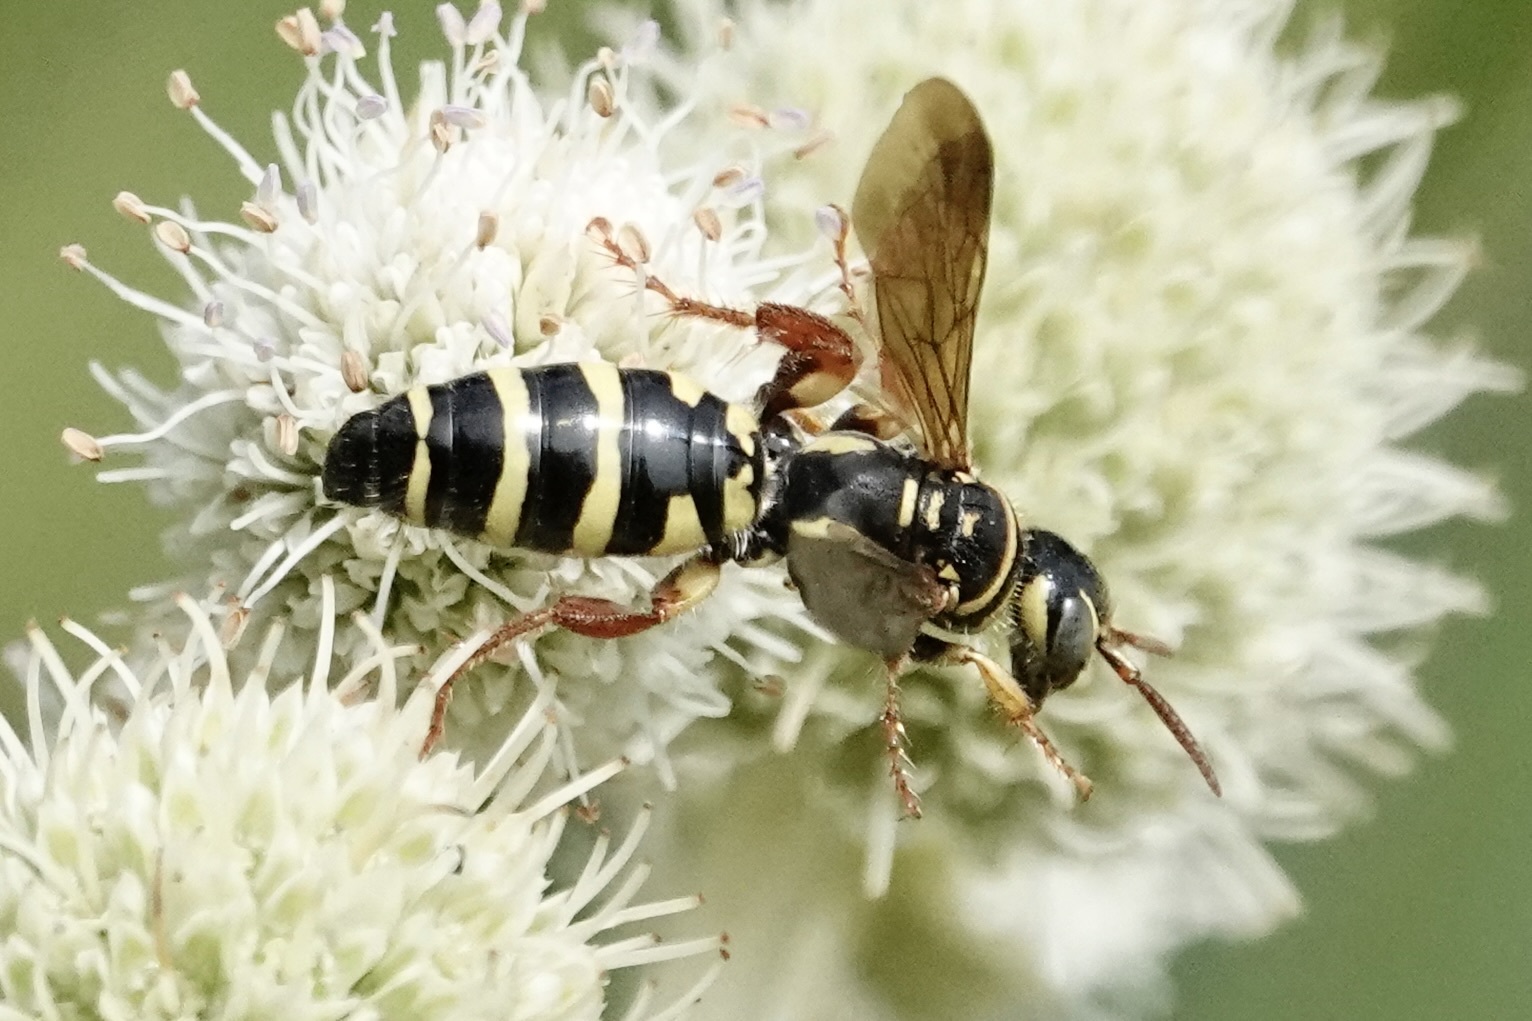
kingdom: Animalia
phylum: Arthropoda
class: Insecta
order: Hymenoptera
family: Tiphiidae
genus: Myzinum
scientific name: Myzinum quinquecinctum
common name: Five-banded thynnid wasp
